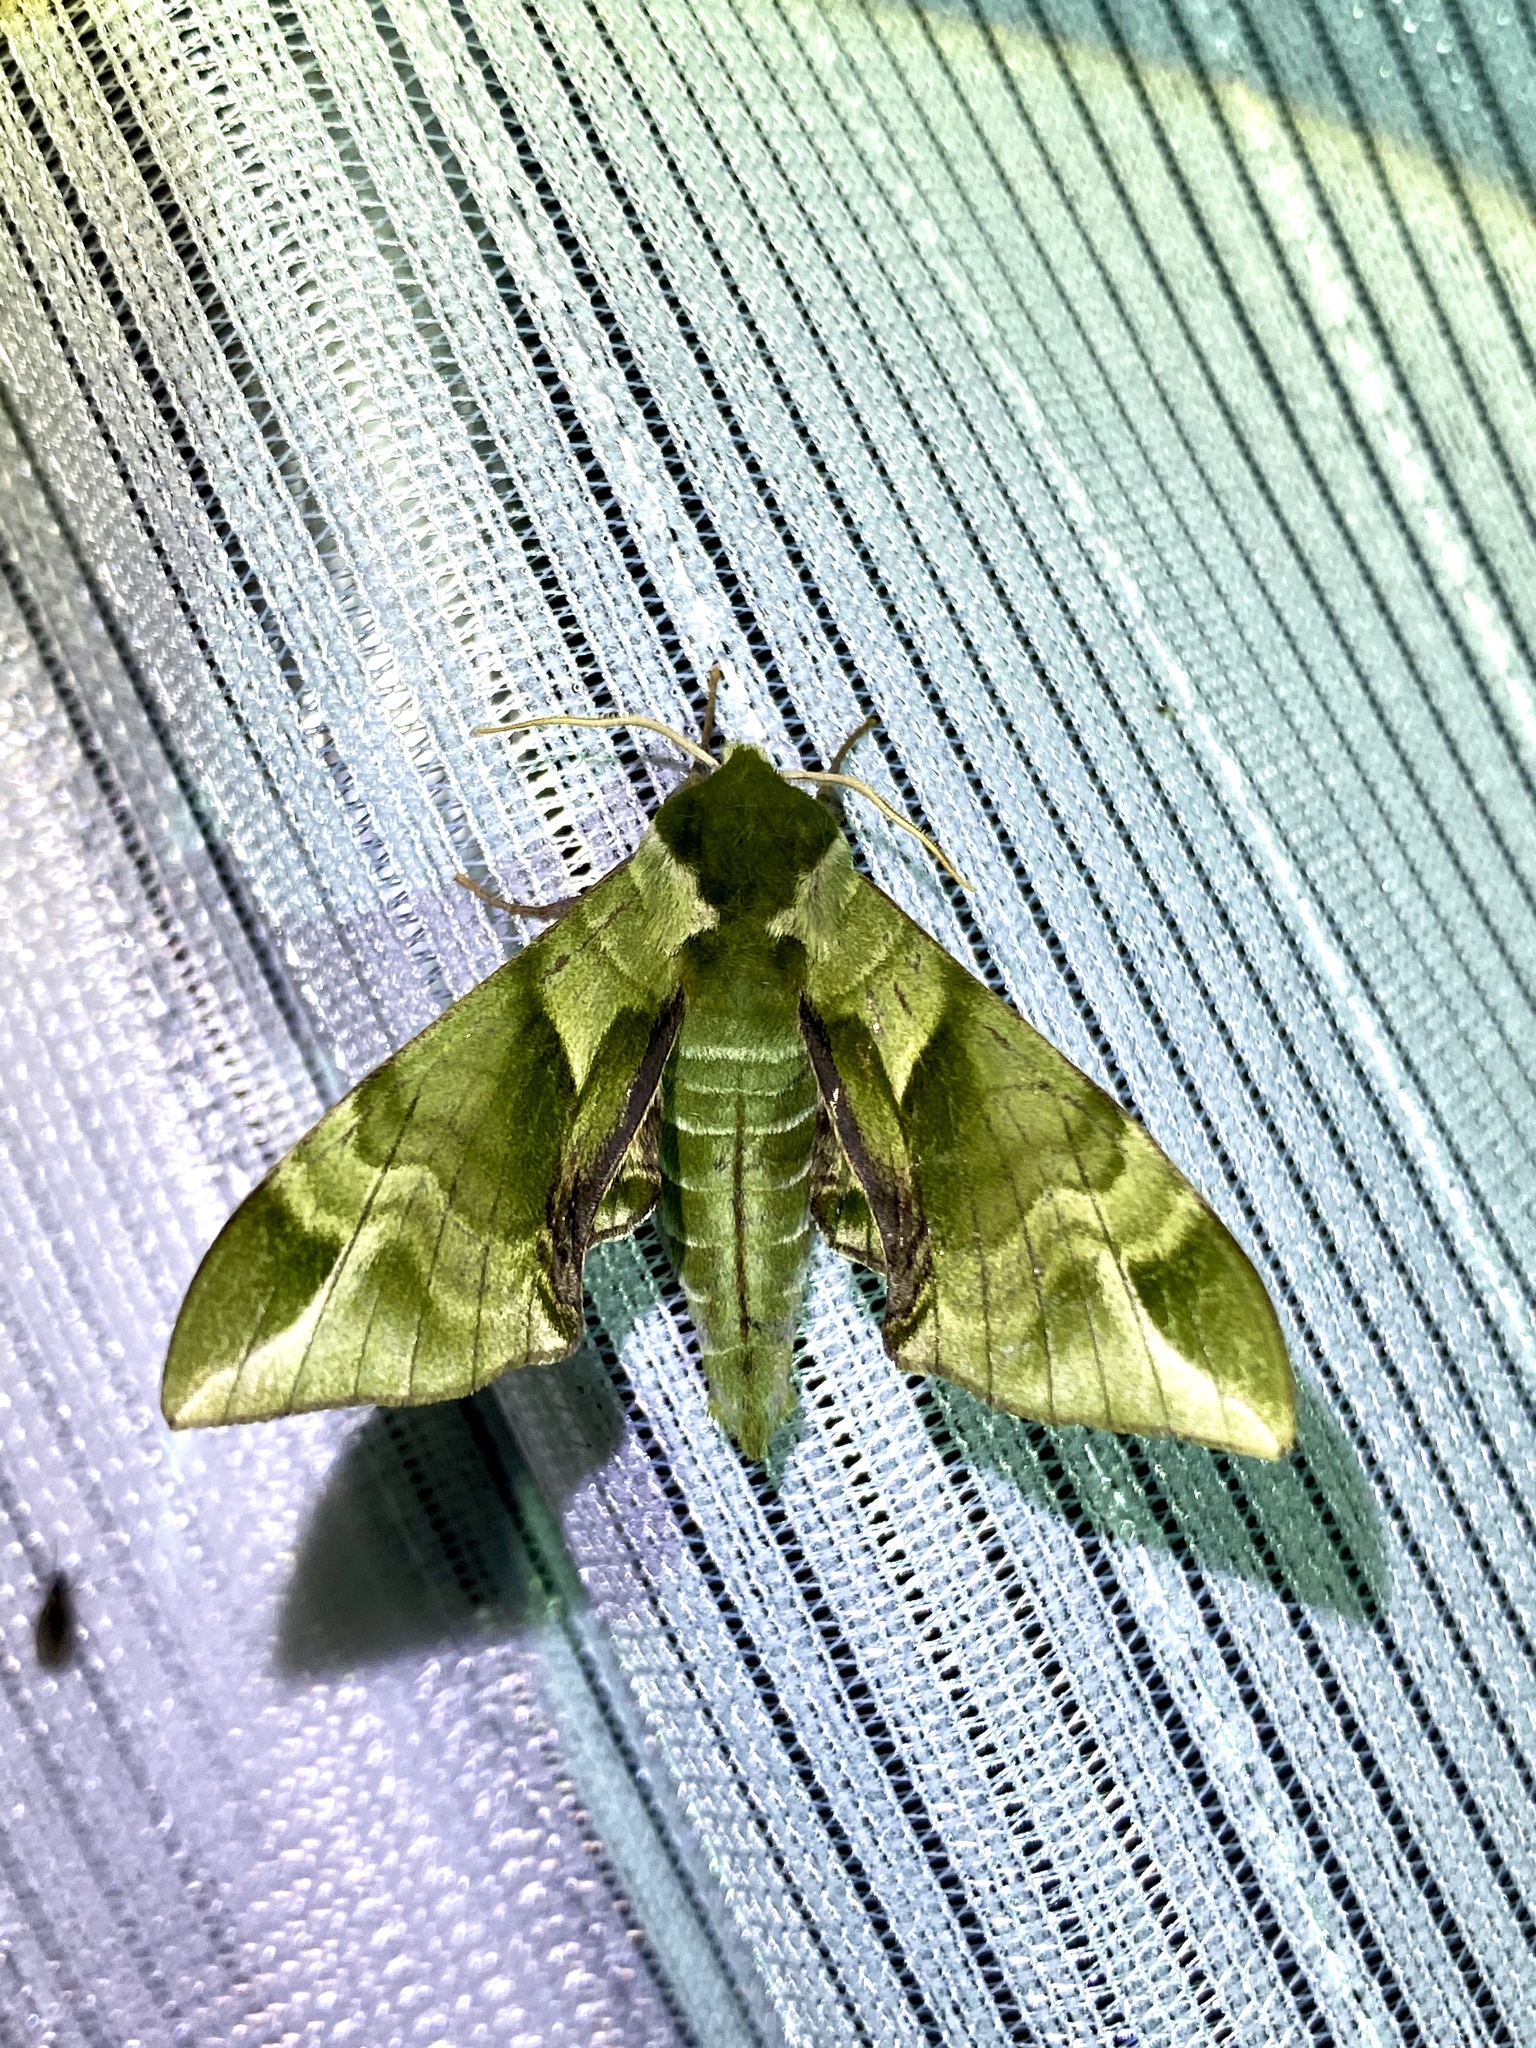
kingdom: Animalia
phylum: Arthropoda
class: Insecta
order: Lepidoptera
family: Sphingidae
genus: Callambulyx
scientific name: Callambulyx tatarinovii
